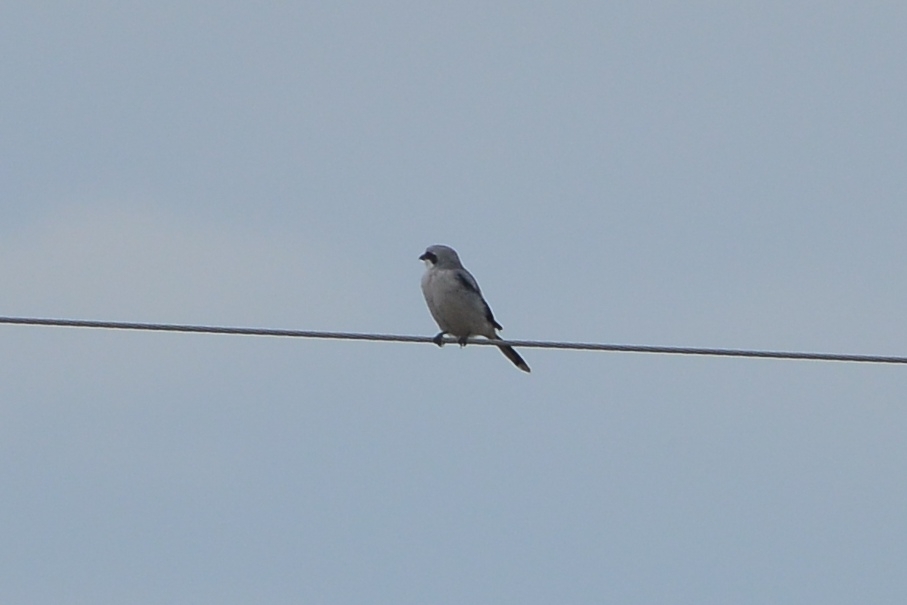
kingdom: Animalia
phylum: Chordata
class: Aves
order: Passeriformes
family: Laniidae
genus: Lanius
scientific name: Lanius excubitor
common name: Great grey shrike
